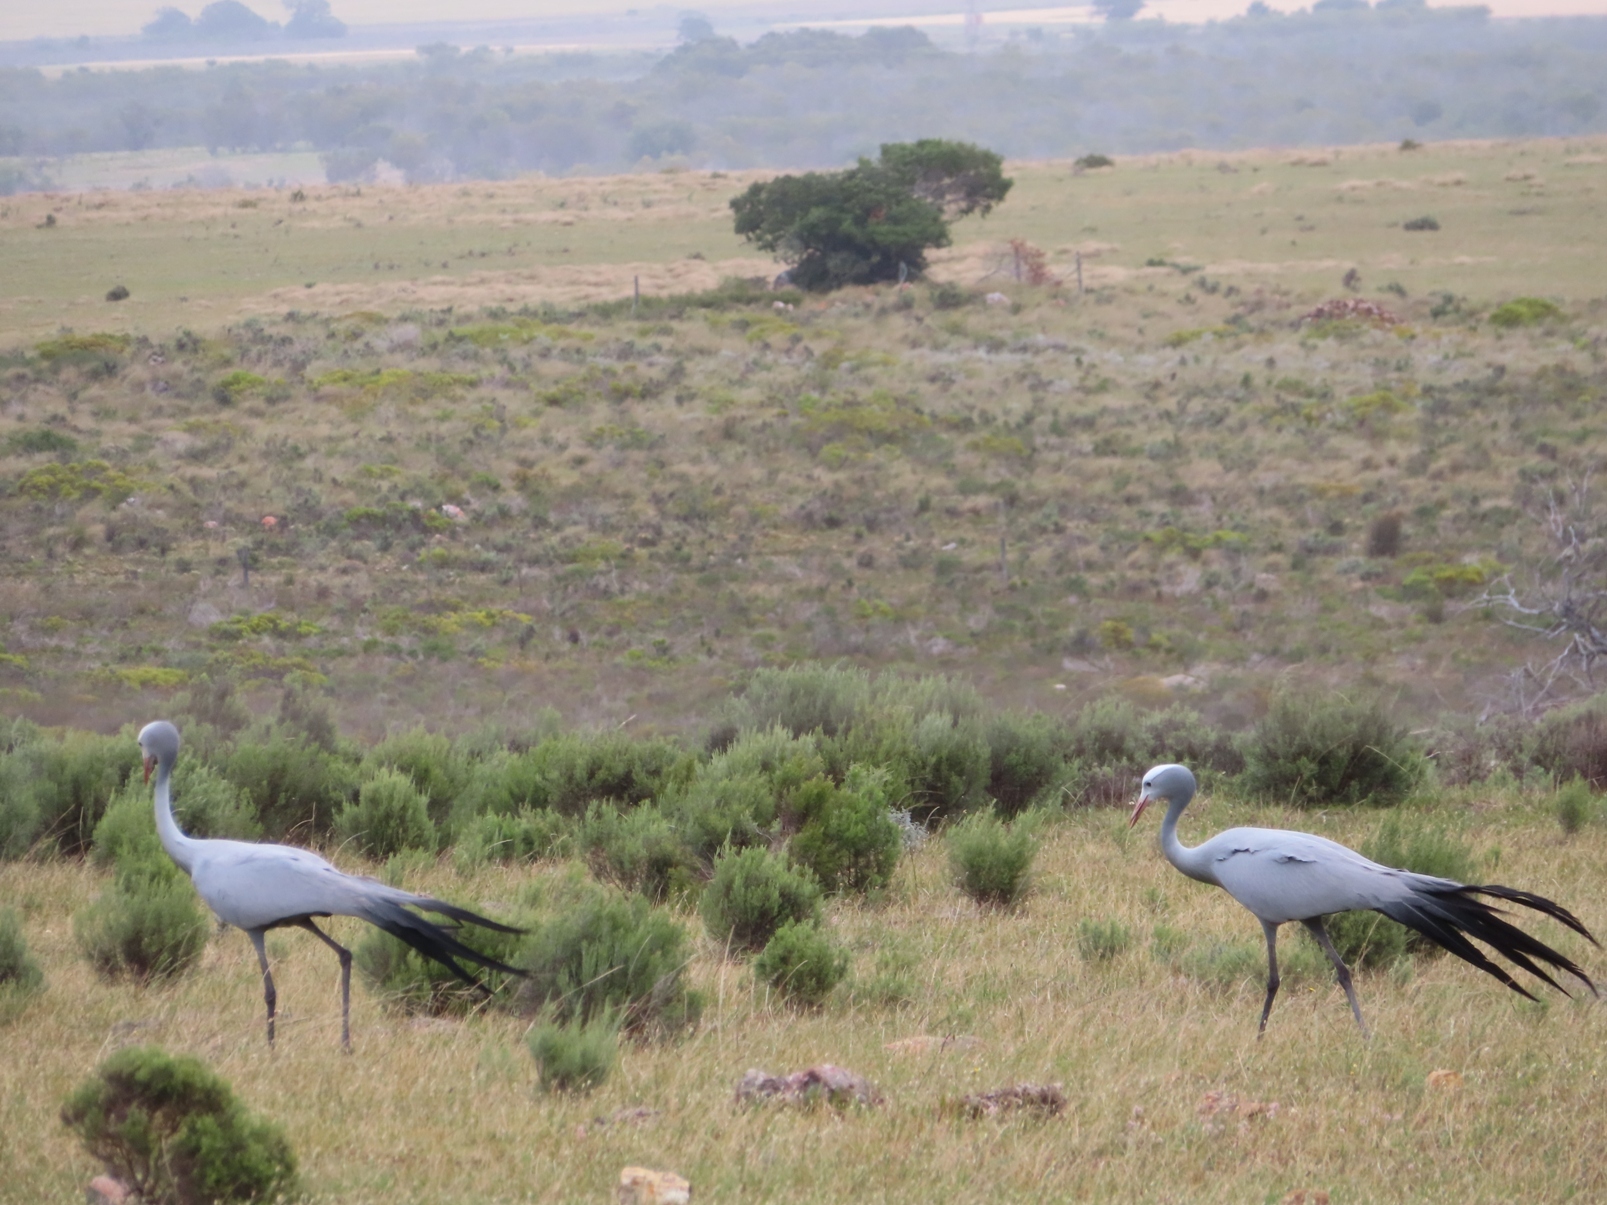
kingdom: Animalia
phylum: Chordata
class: Aves
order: Gruiformes
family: Gruidae
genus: Anthropoides
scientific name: Anthropoides paradiseus
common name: Blue crane
